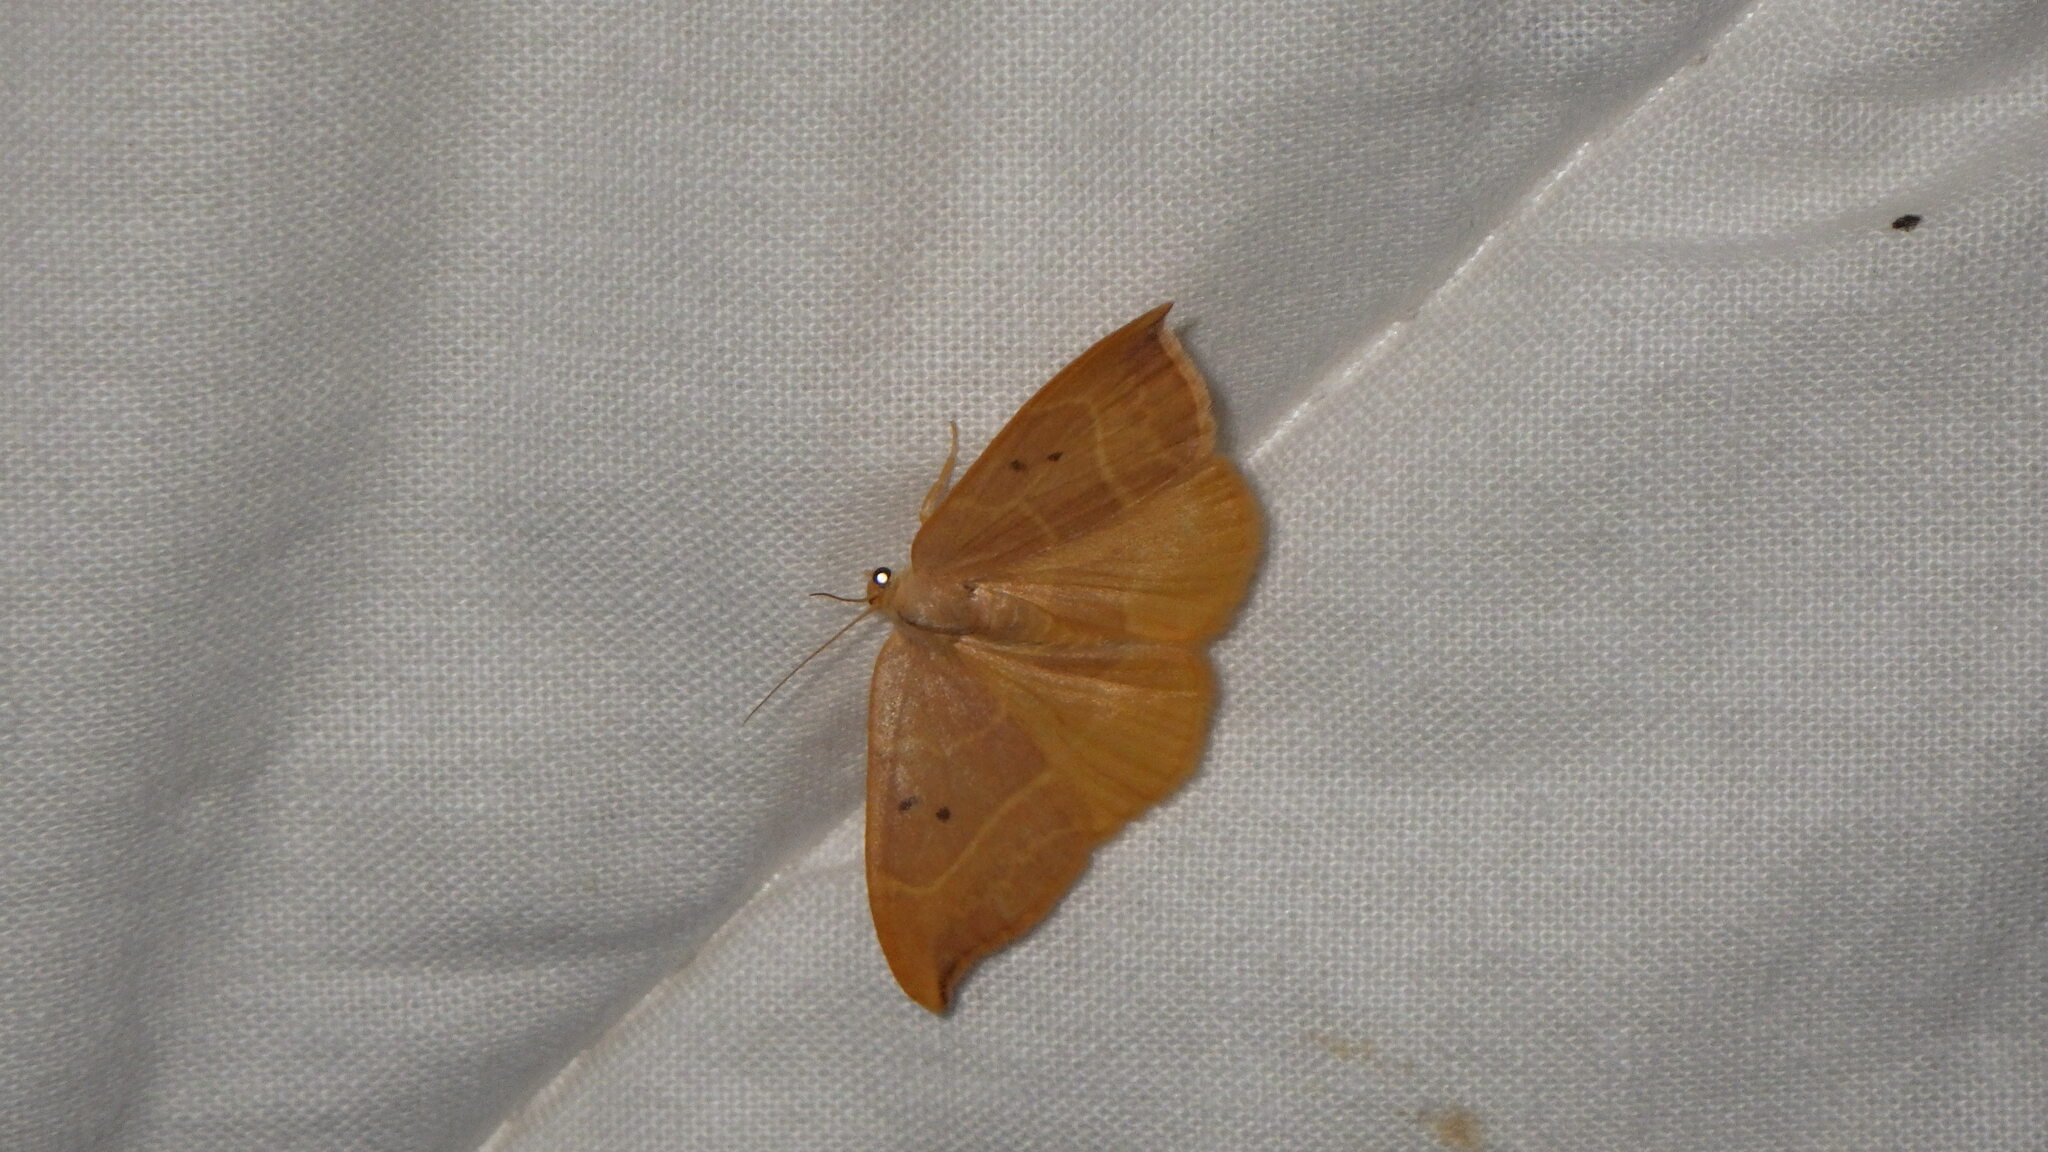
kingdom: Animalia
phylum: Arthropoda
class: Insecta
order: Lepidoptera
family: Drepanidae
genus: Watsonalla
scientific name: Watsonalla uncinula
